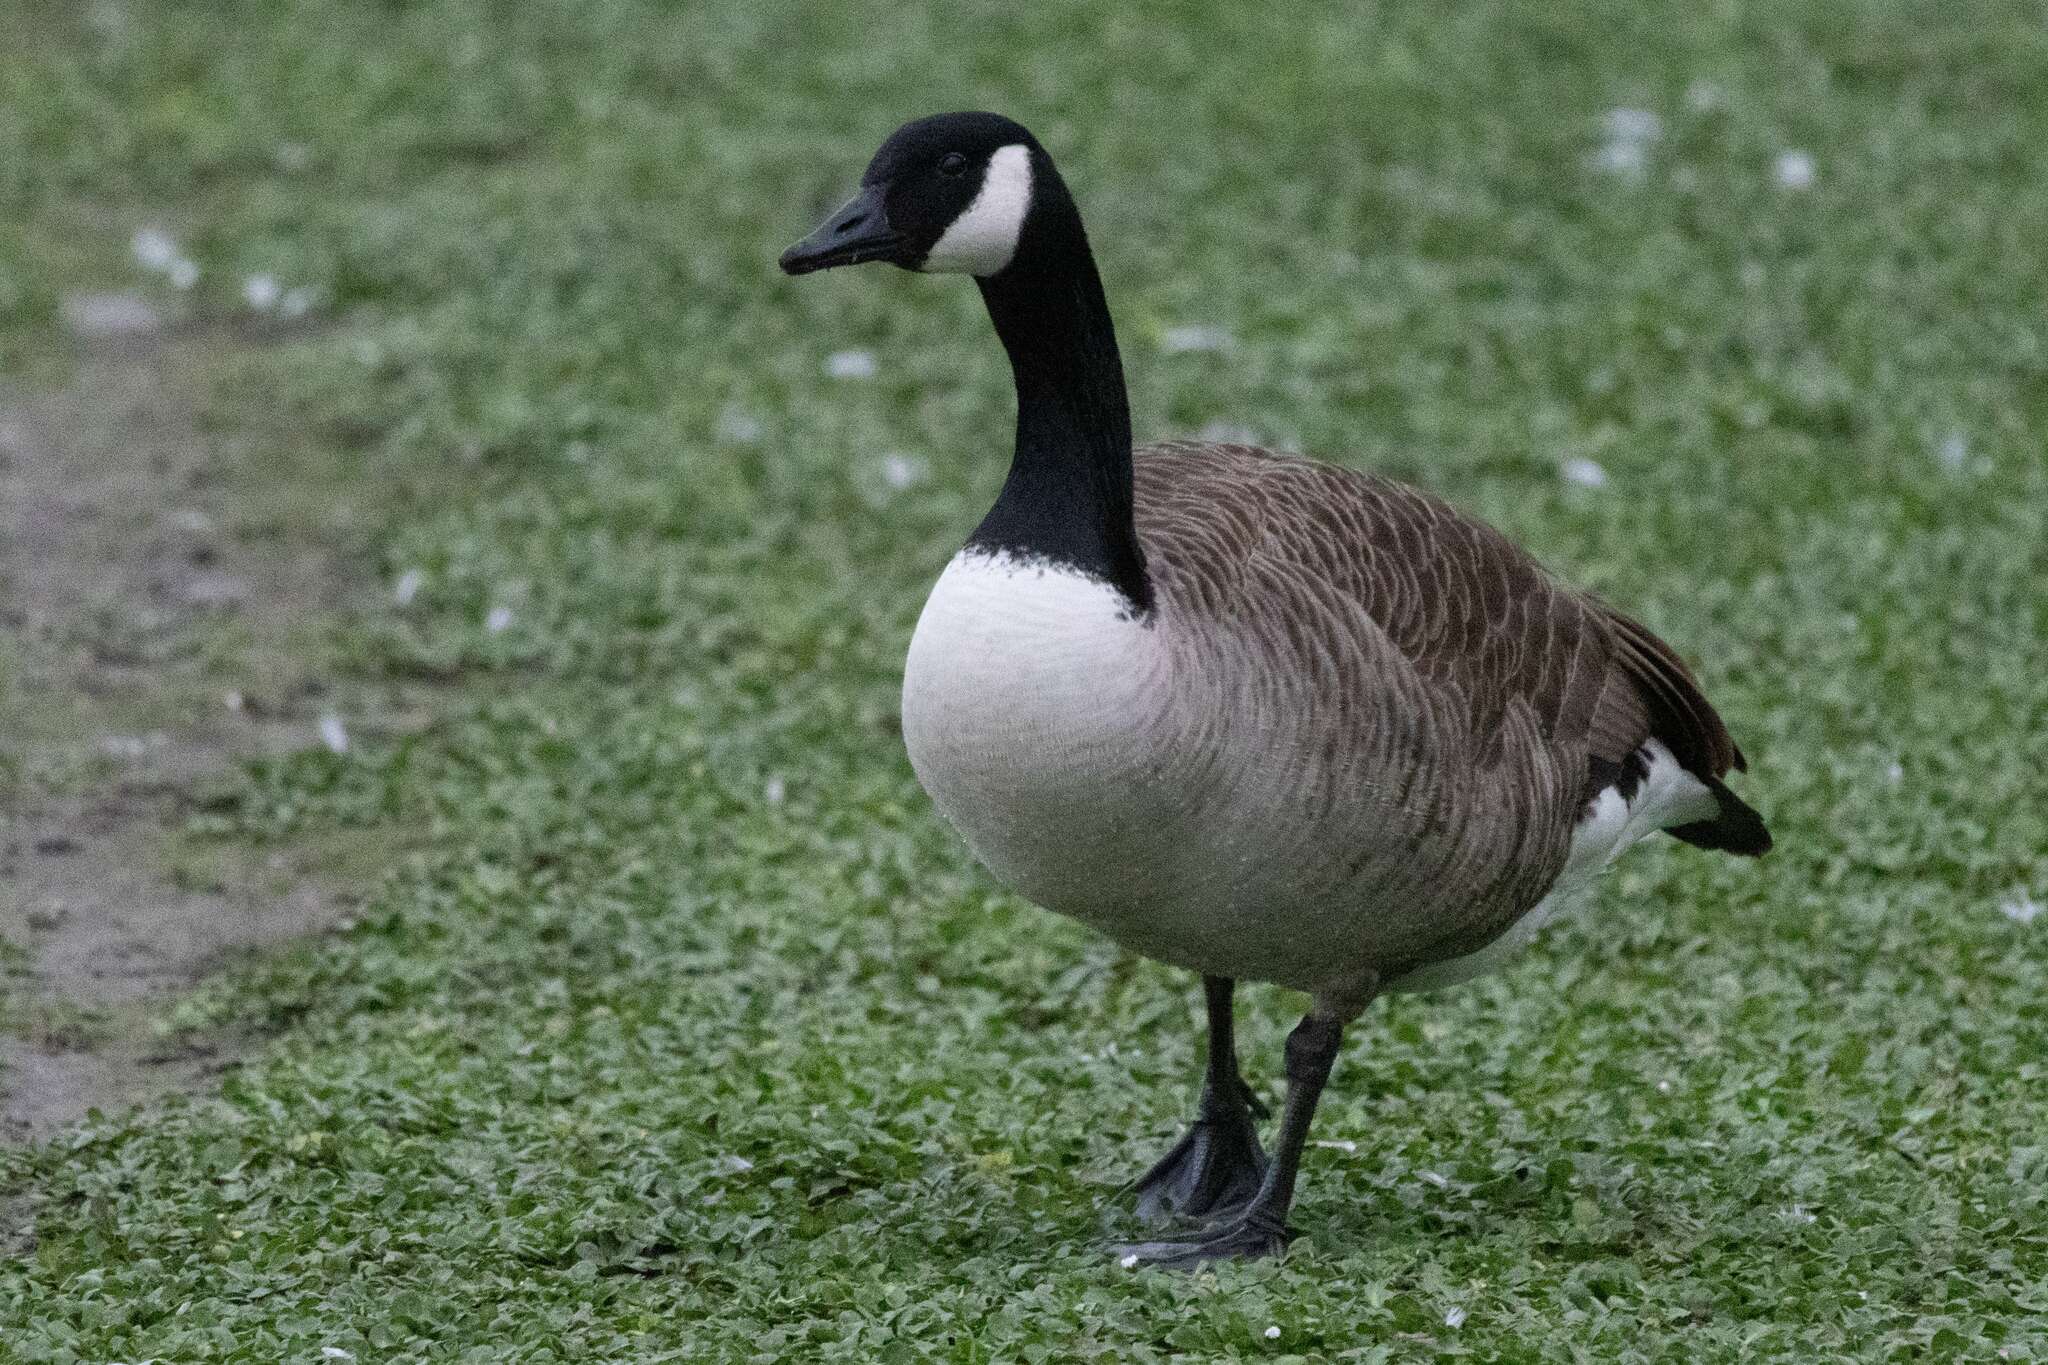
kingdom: Animalia
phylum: Chordata
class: Aves
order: Anseriformes
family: Anatidae
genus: Branta
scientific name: Branta canadensis
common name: Canada goose
